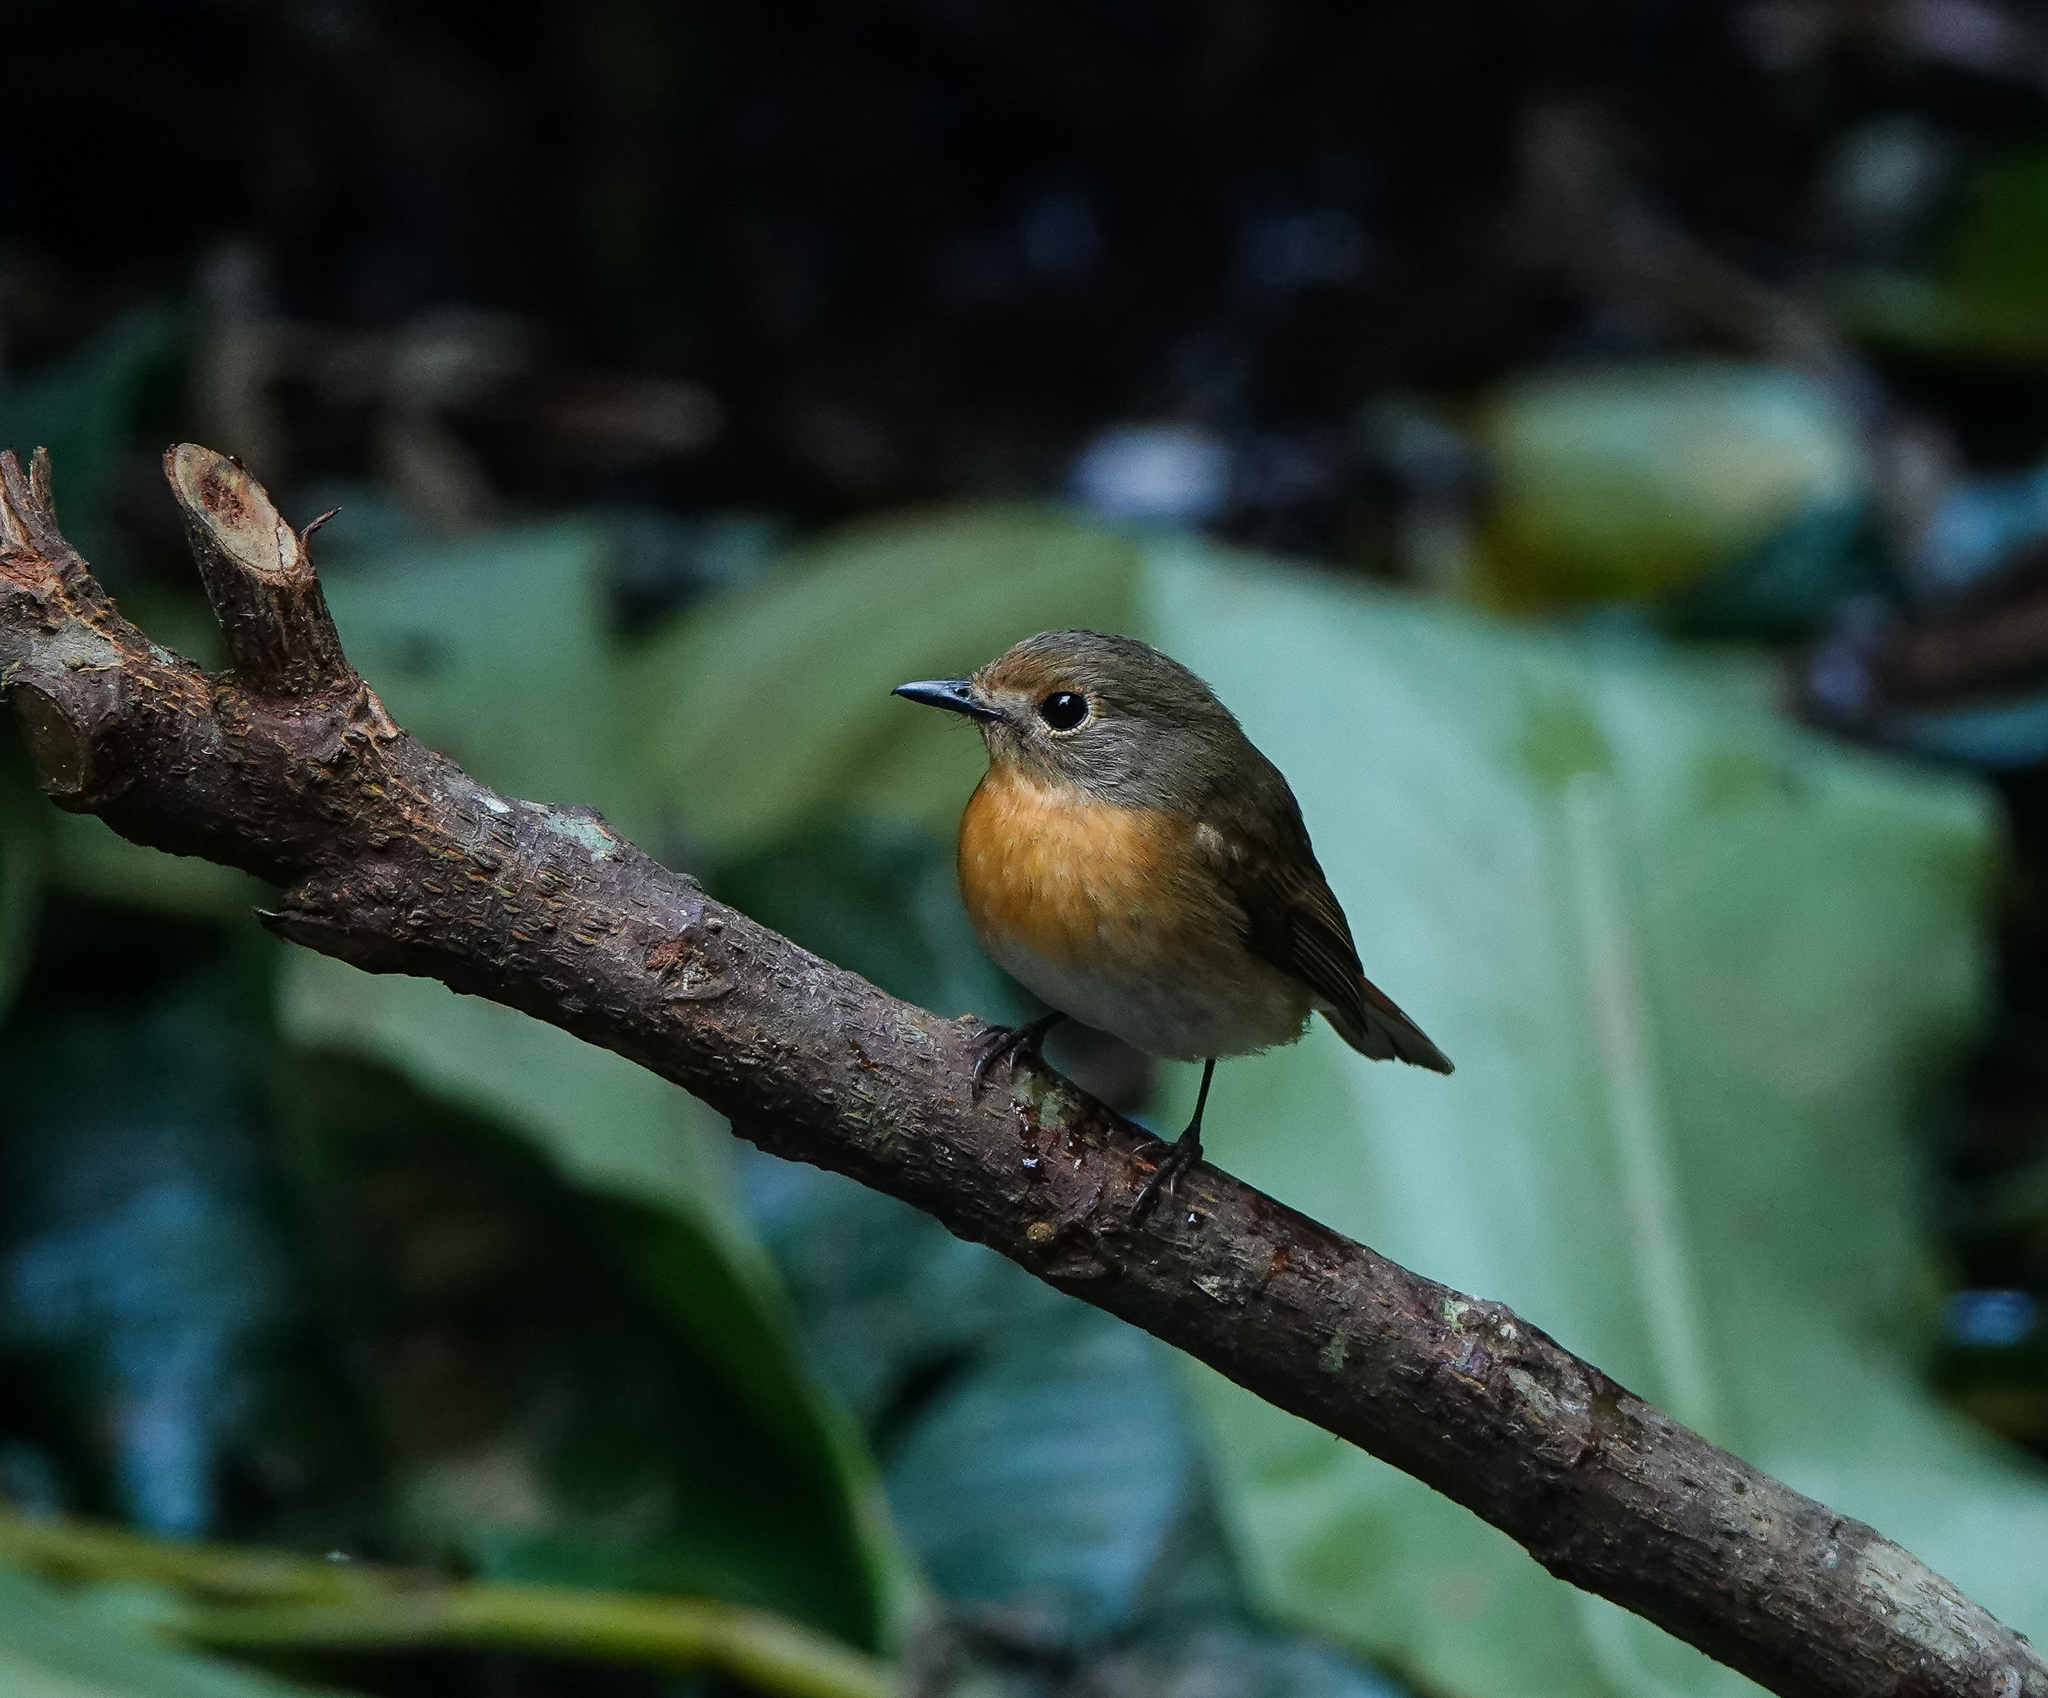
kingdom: Animalia
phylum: Chordata
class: Aves
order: Passeriformes
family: Muscicapidae
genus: Cyornis
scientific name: Cyornis whitei
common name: Hill blue flycatcher
